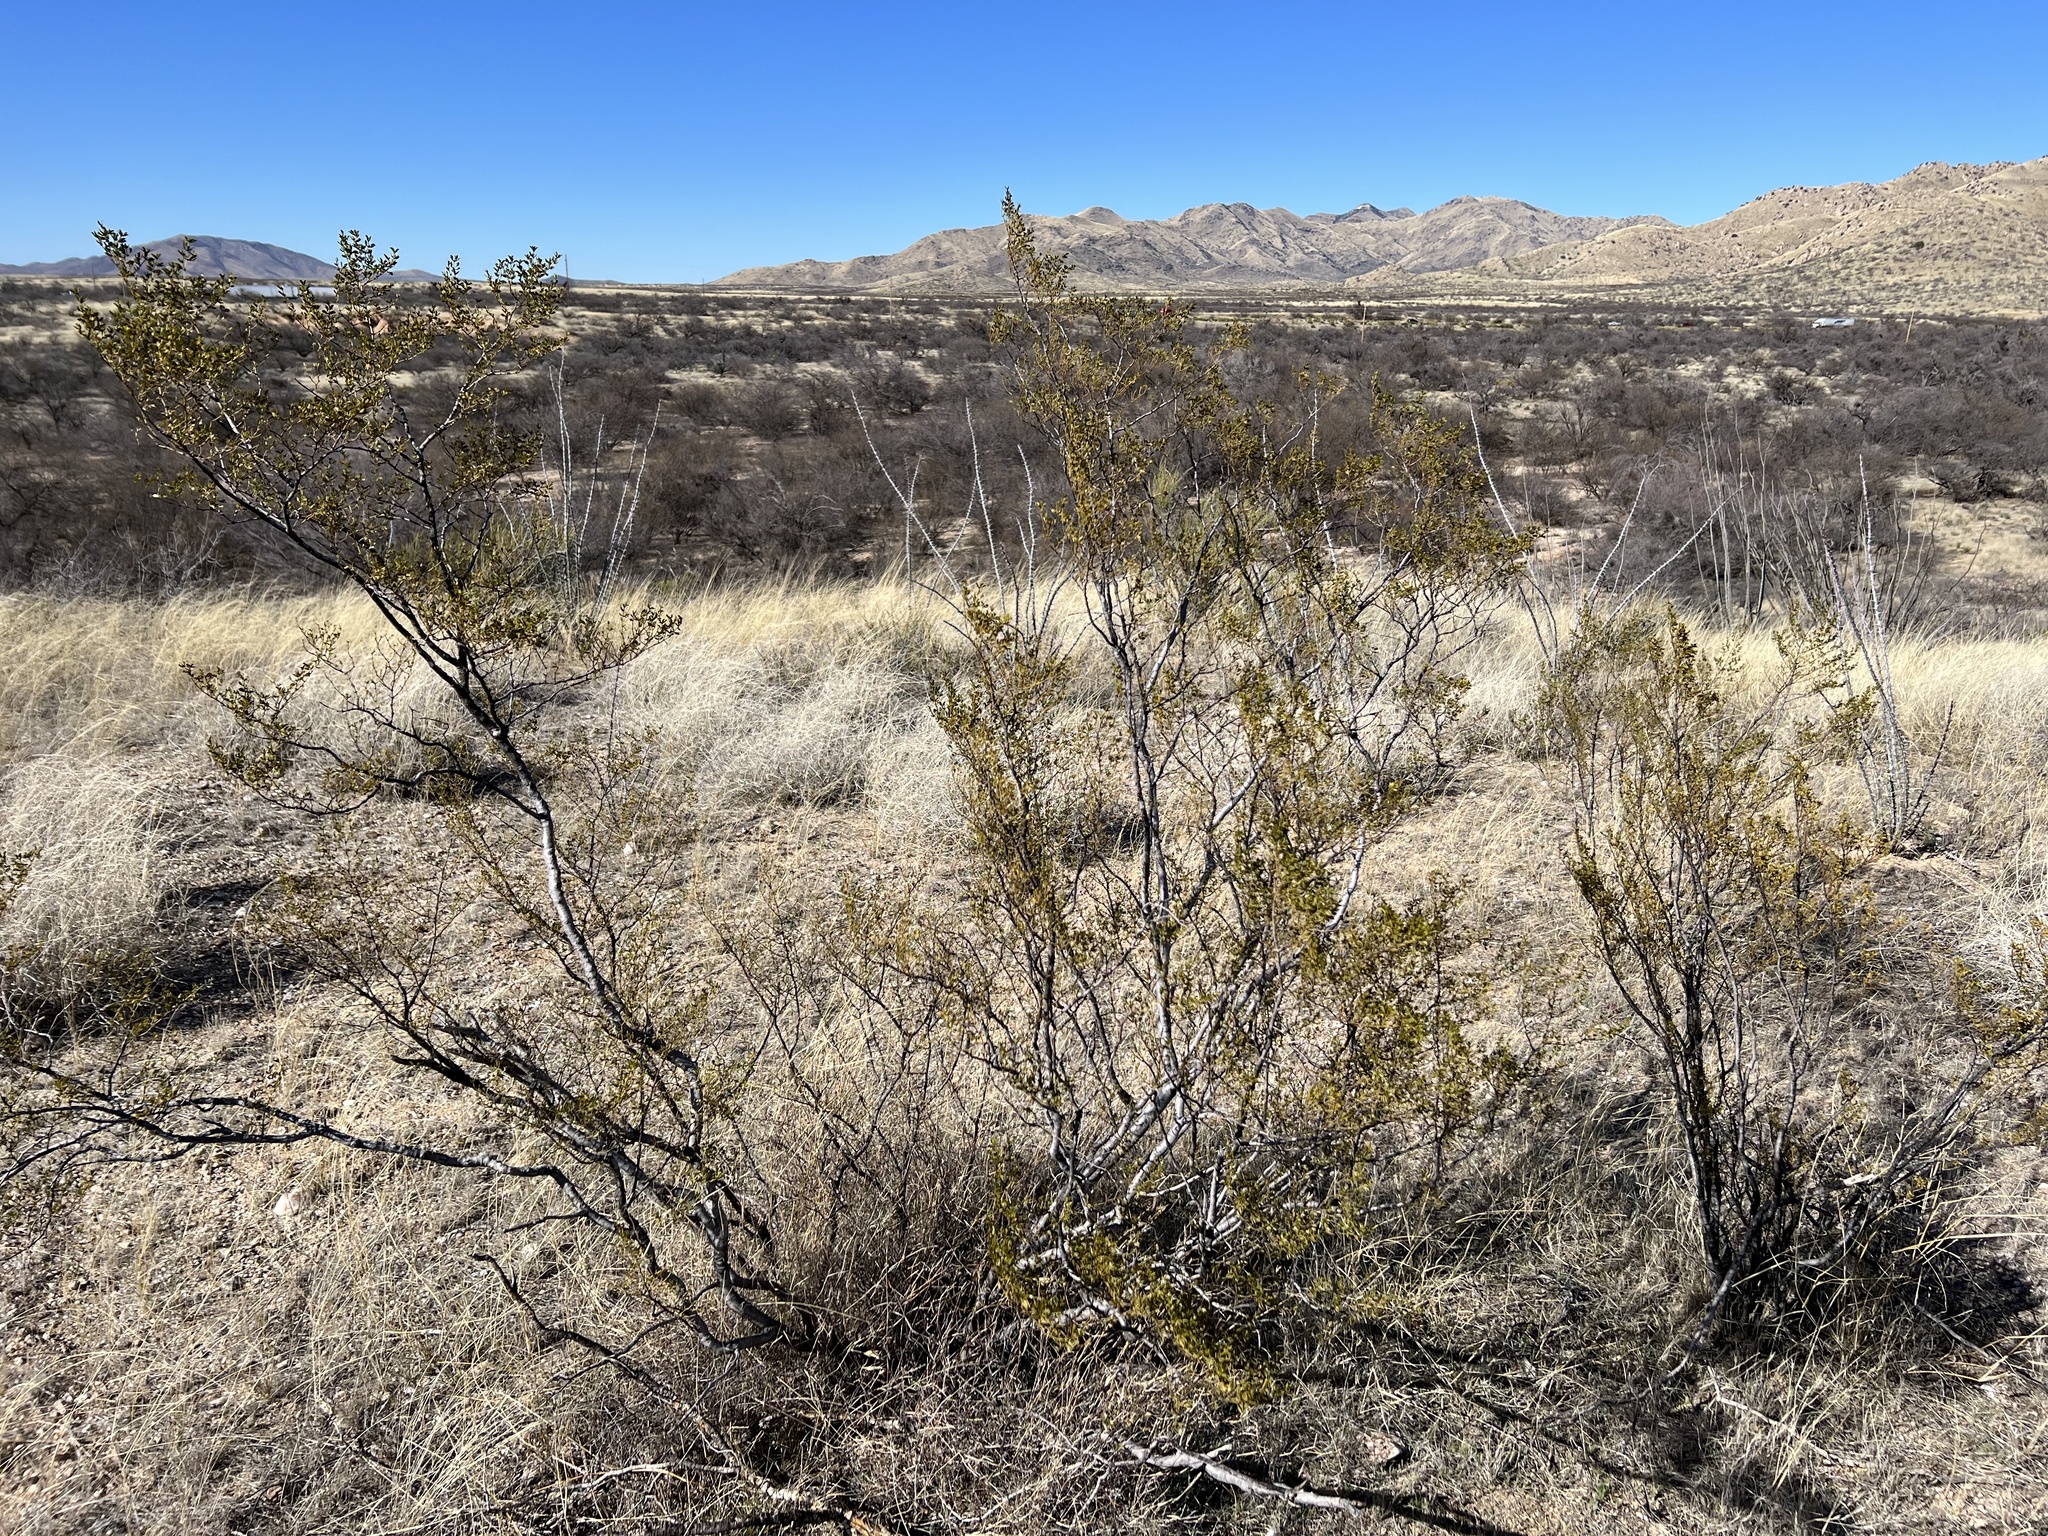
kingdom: Plantae
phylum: Tracheophyta
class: Magnoliopsida
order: Zygophyllales
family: Zygophyllaceae
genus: Larrea
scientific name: Larrea tridentata
